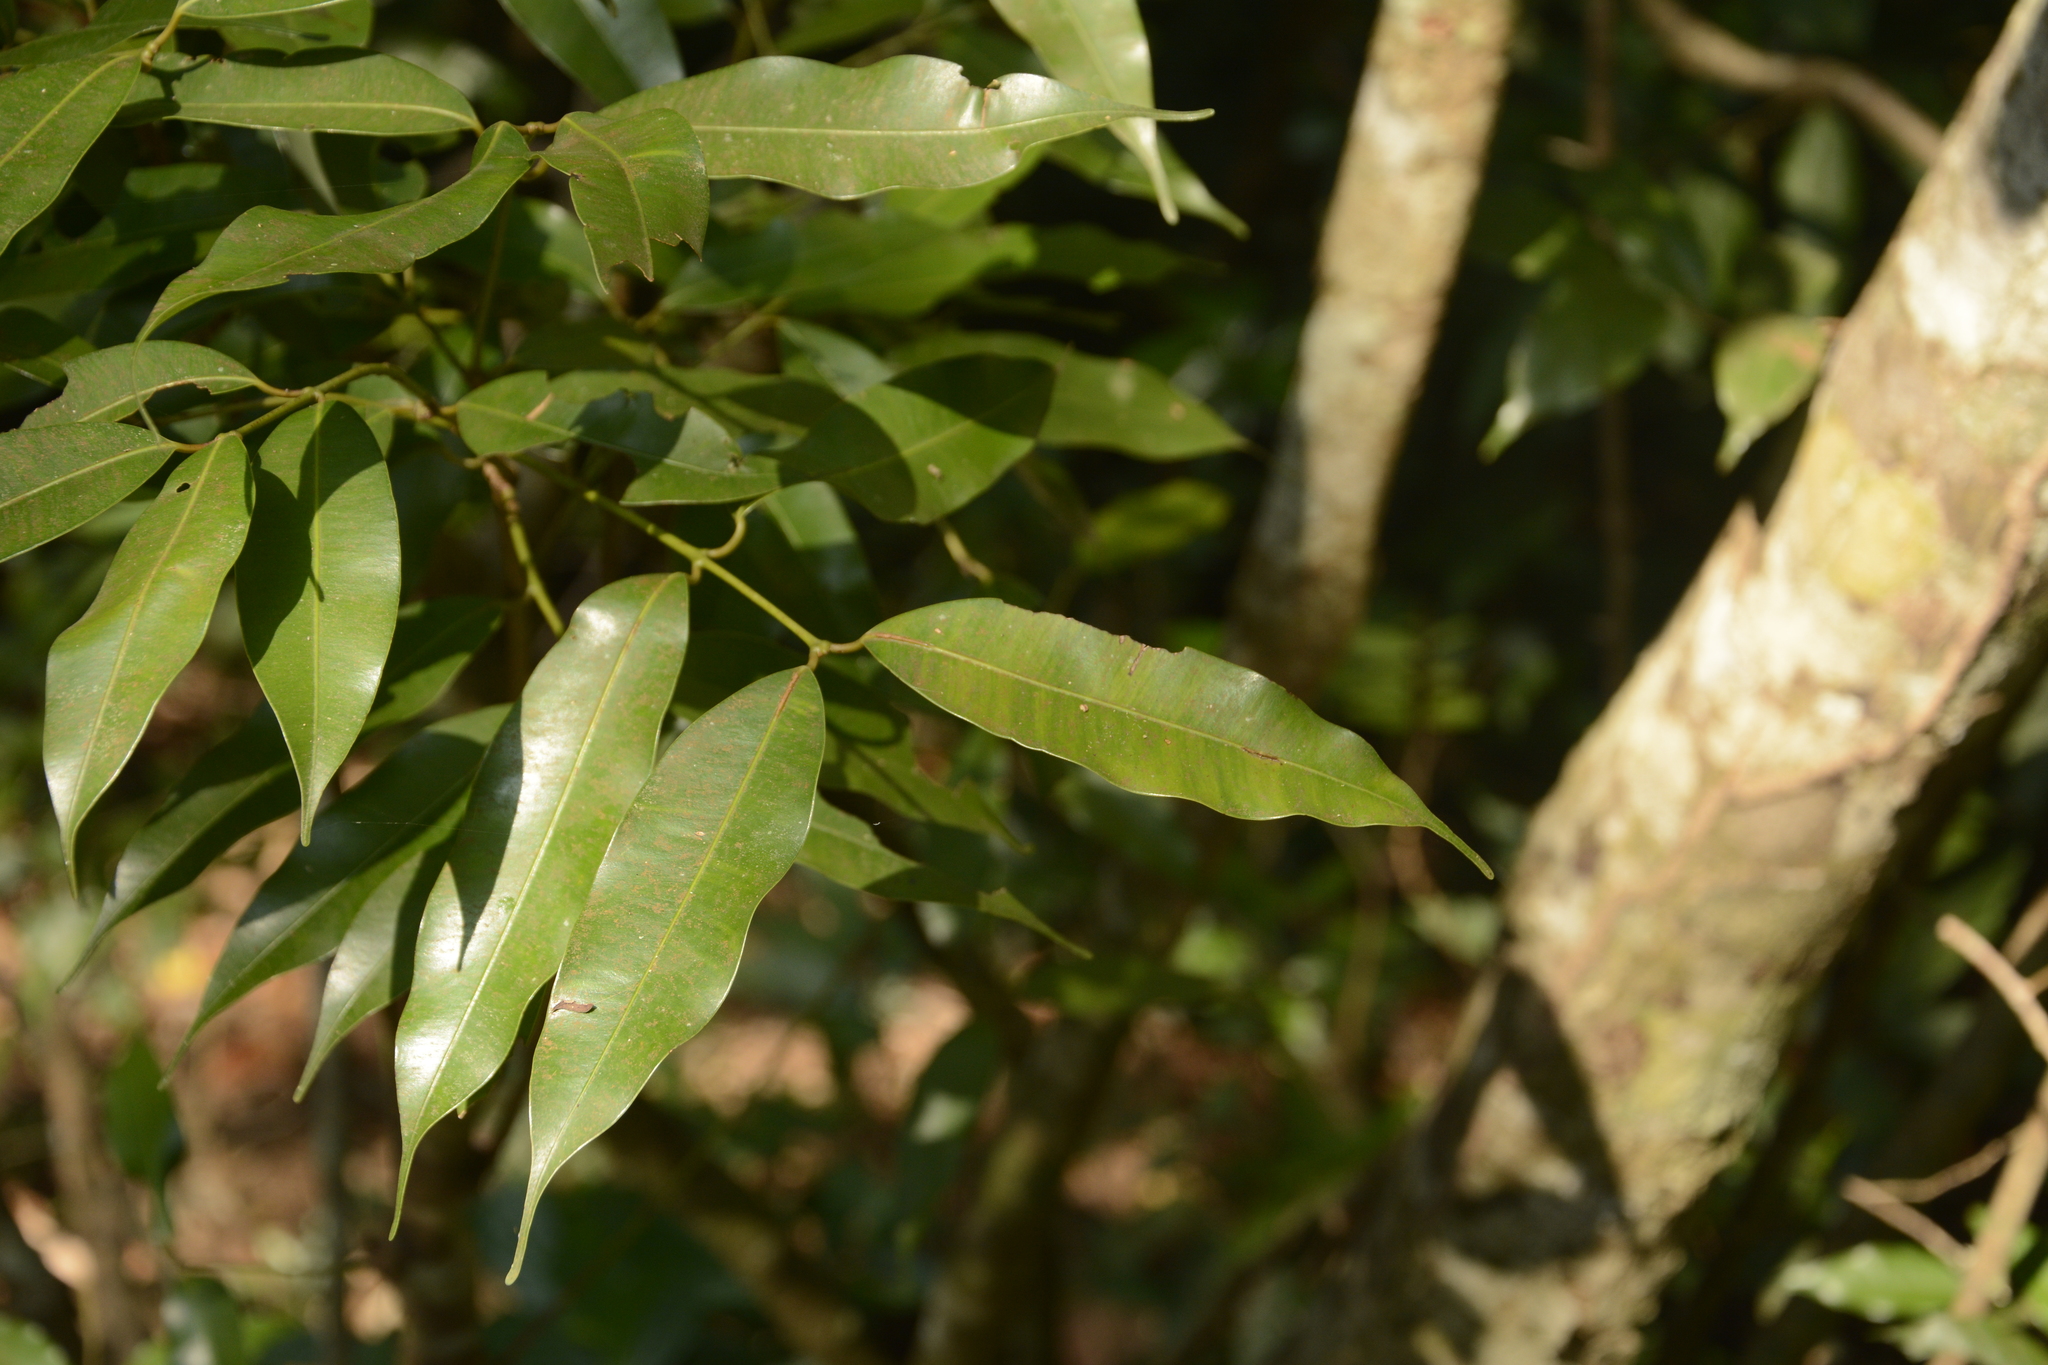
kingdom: Plantae
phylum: Tracheophyta
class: Magnoliopsida
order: Malpighiales
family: Calophyllaceae
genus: Mesua
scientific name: Mesua ferrea
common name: Mesua
